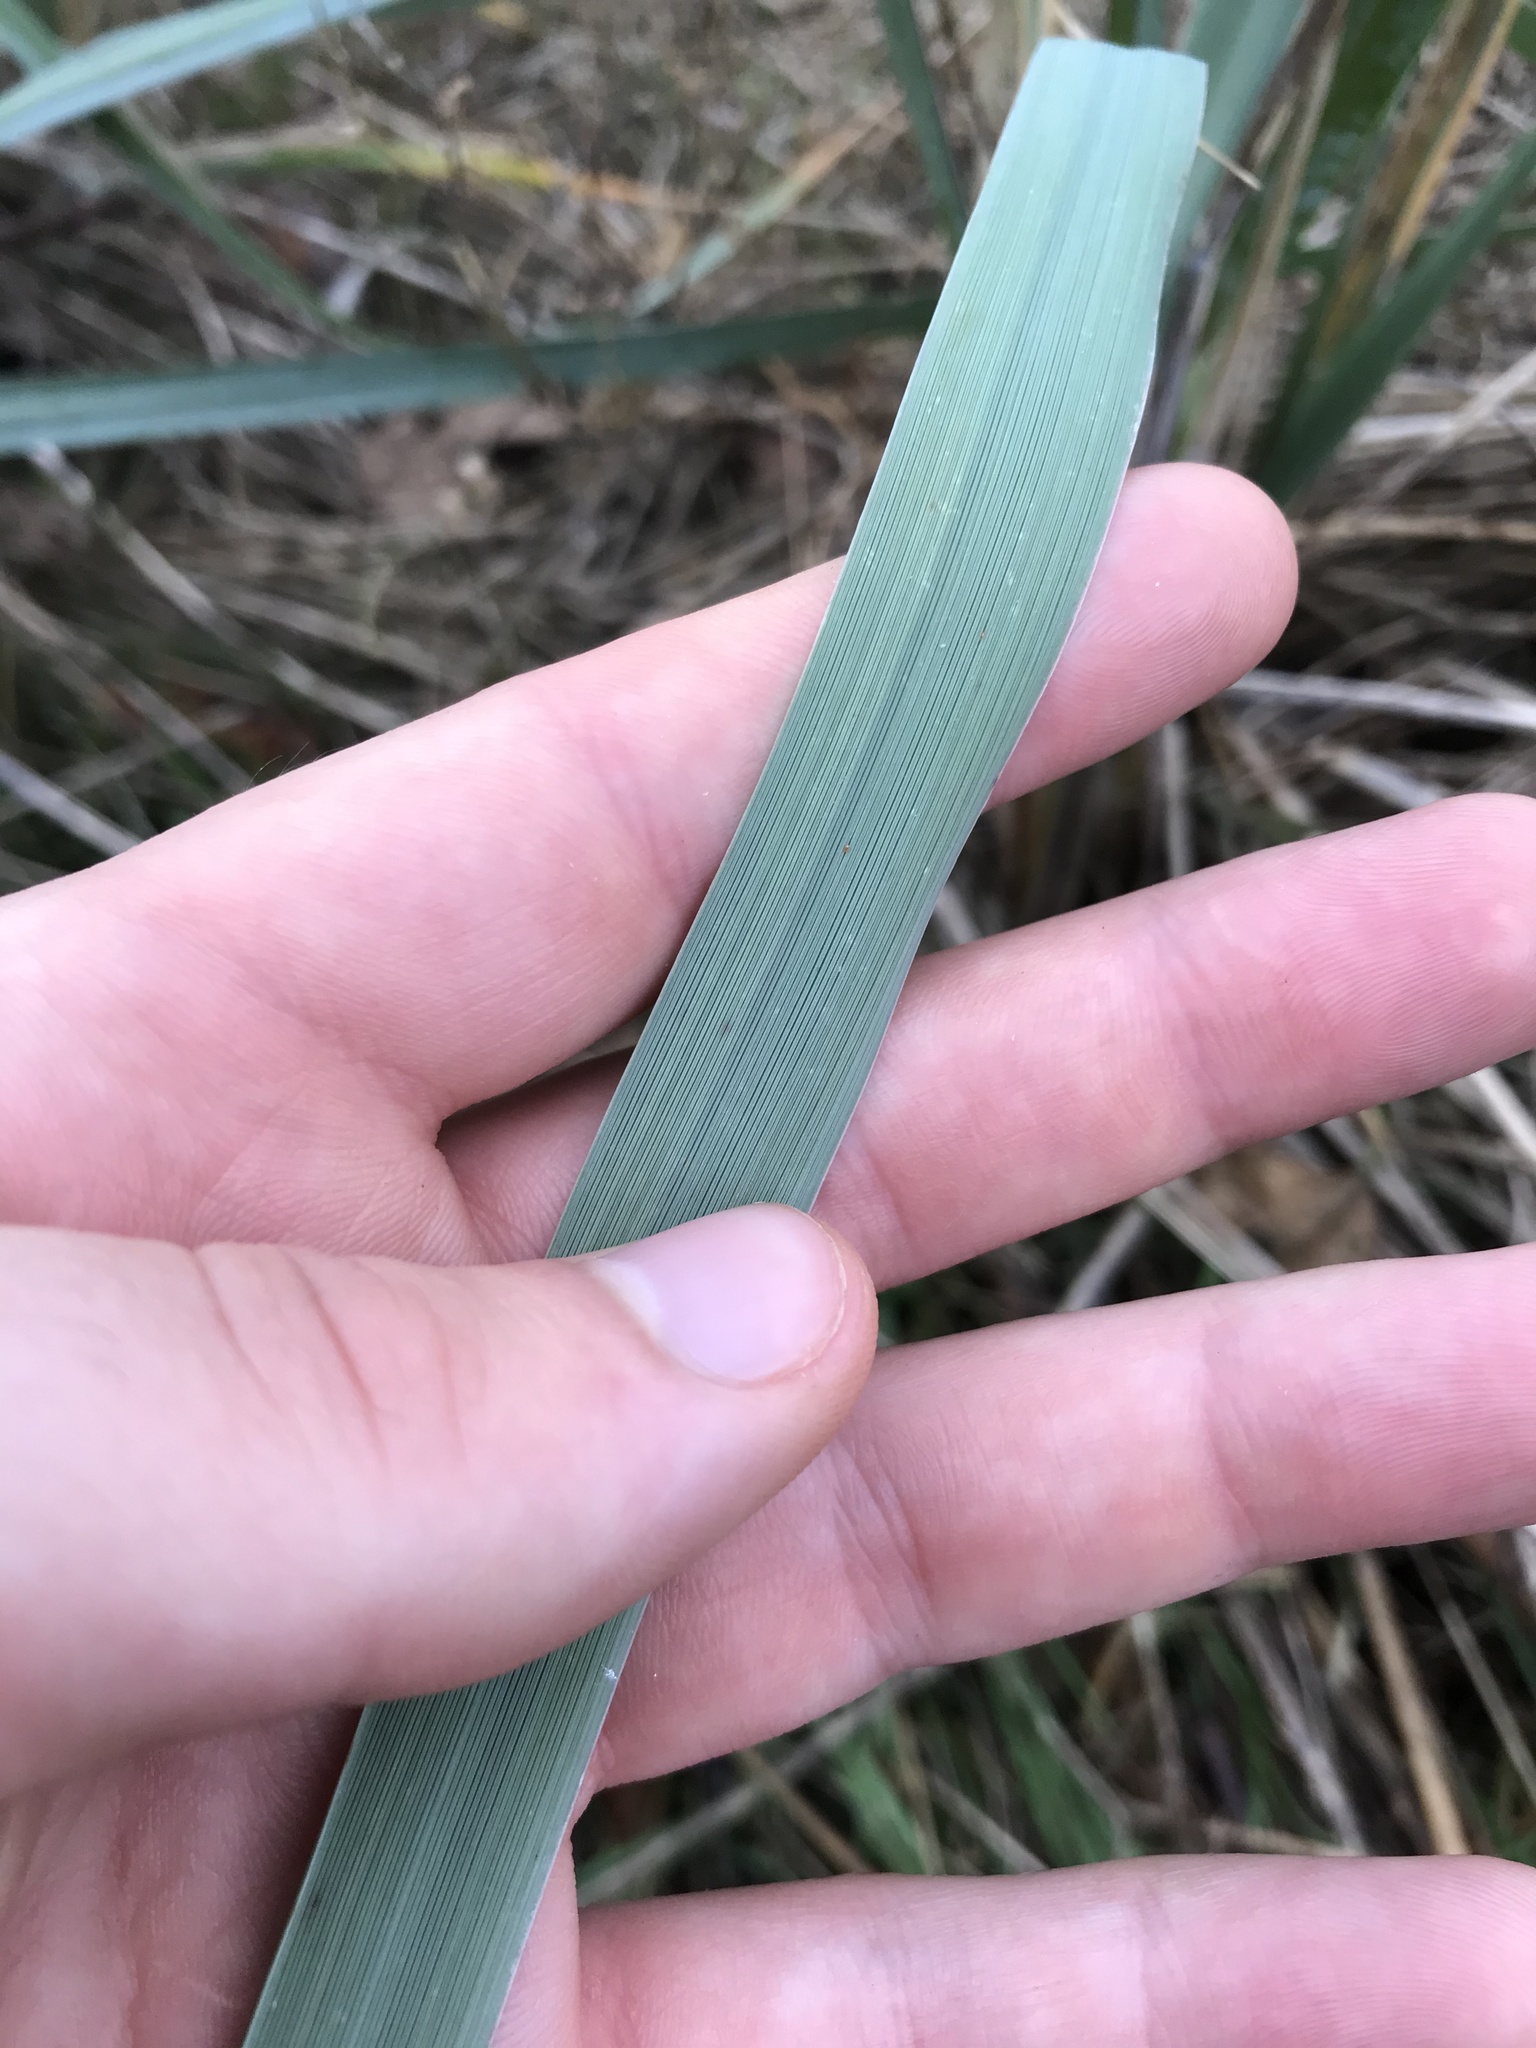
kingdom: Plantae
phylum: Tracheophyta
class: Liliopsida
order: Poales
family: Poaceae
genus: Leymus
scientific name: Leymus mollis
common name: American dune grass
